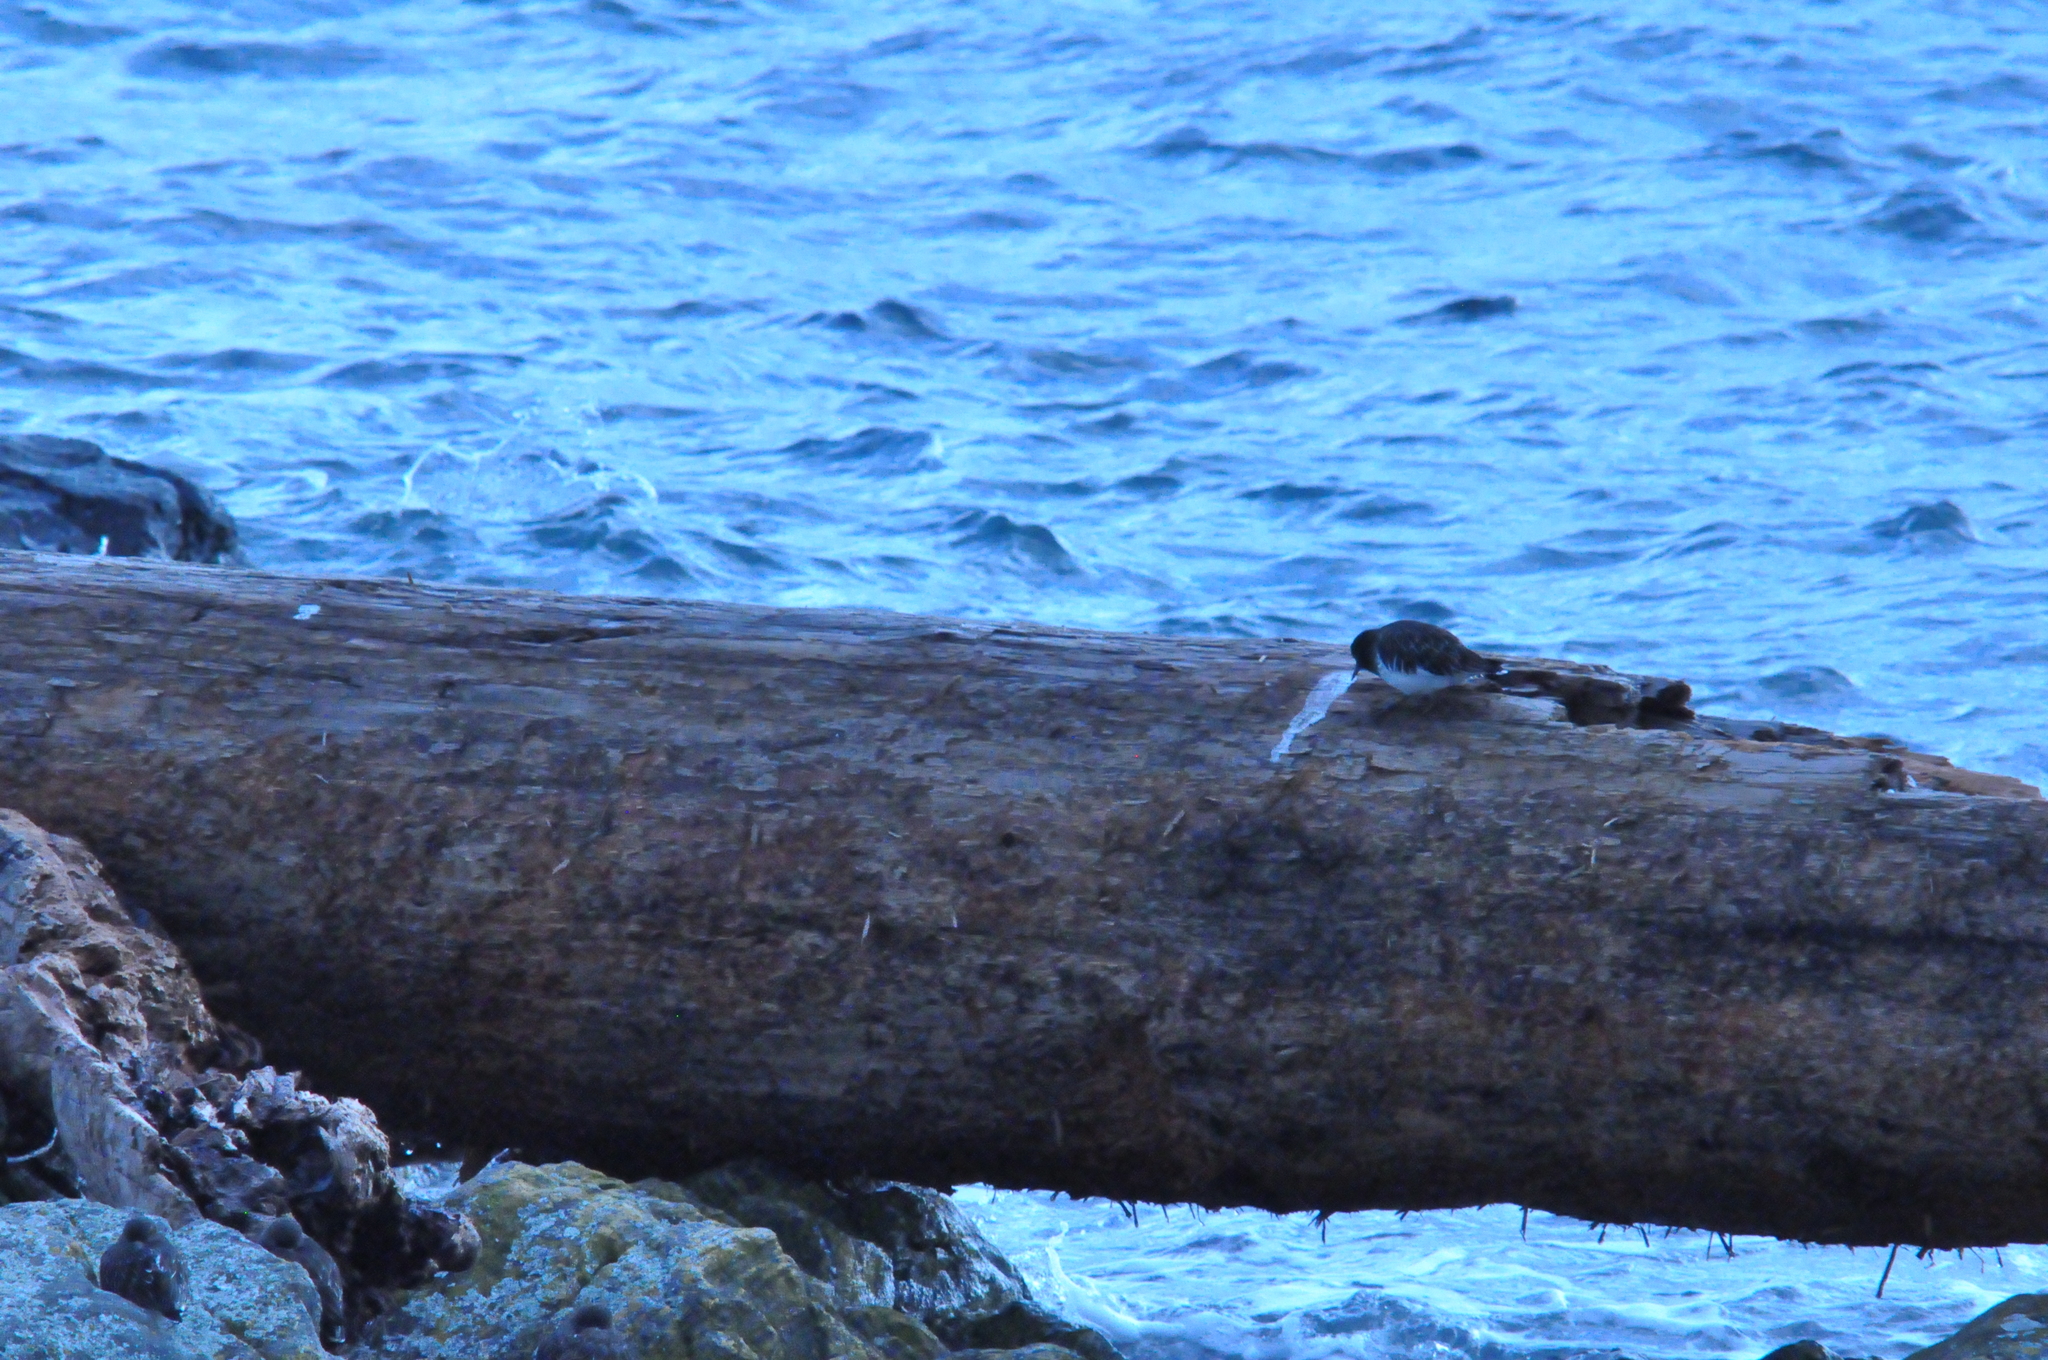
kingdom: Animalia
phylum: Chordata
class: Aves
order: Charadriiformes
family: Scolopacidae
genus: Arenaria
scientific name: Arenaria melanocephala
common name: Black turnstone
